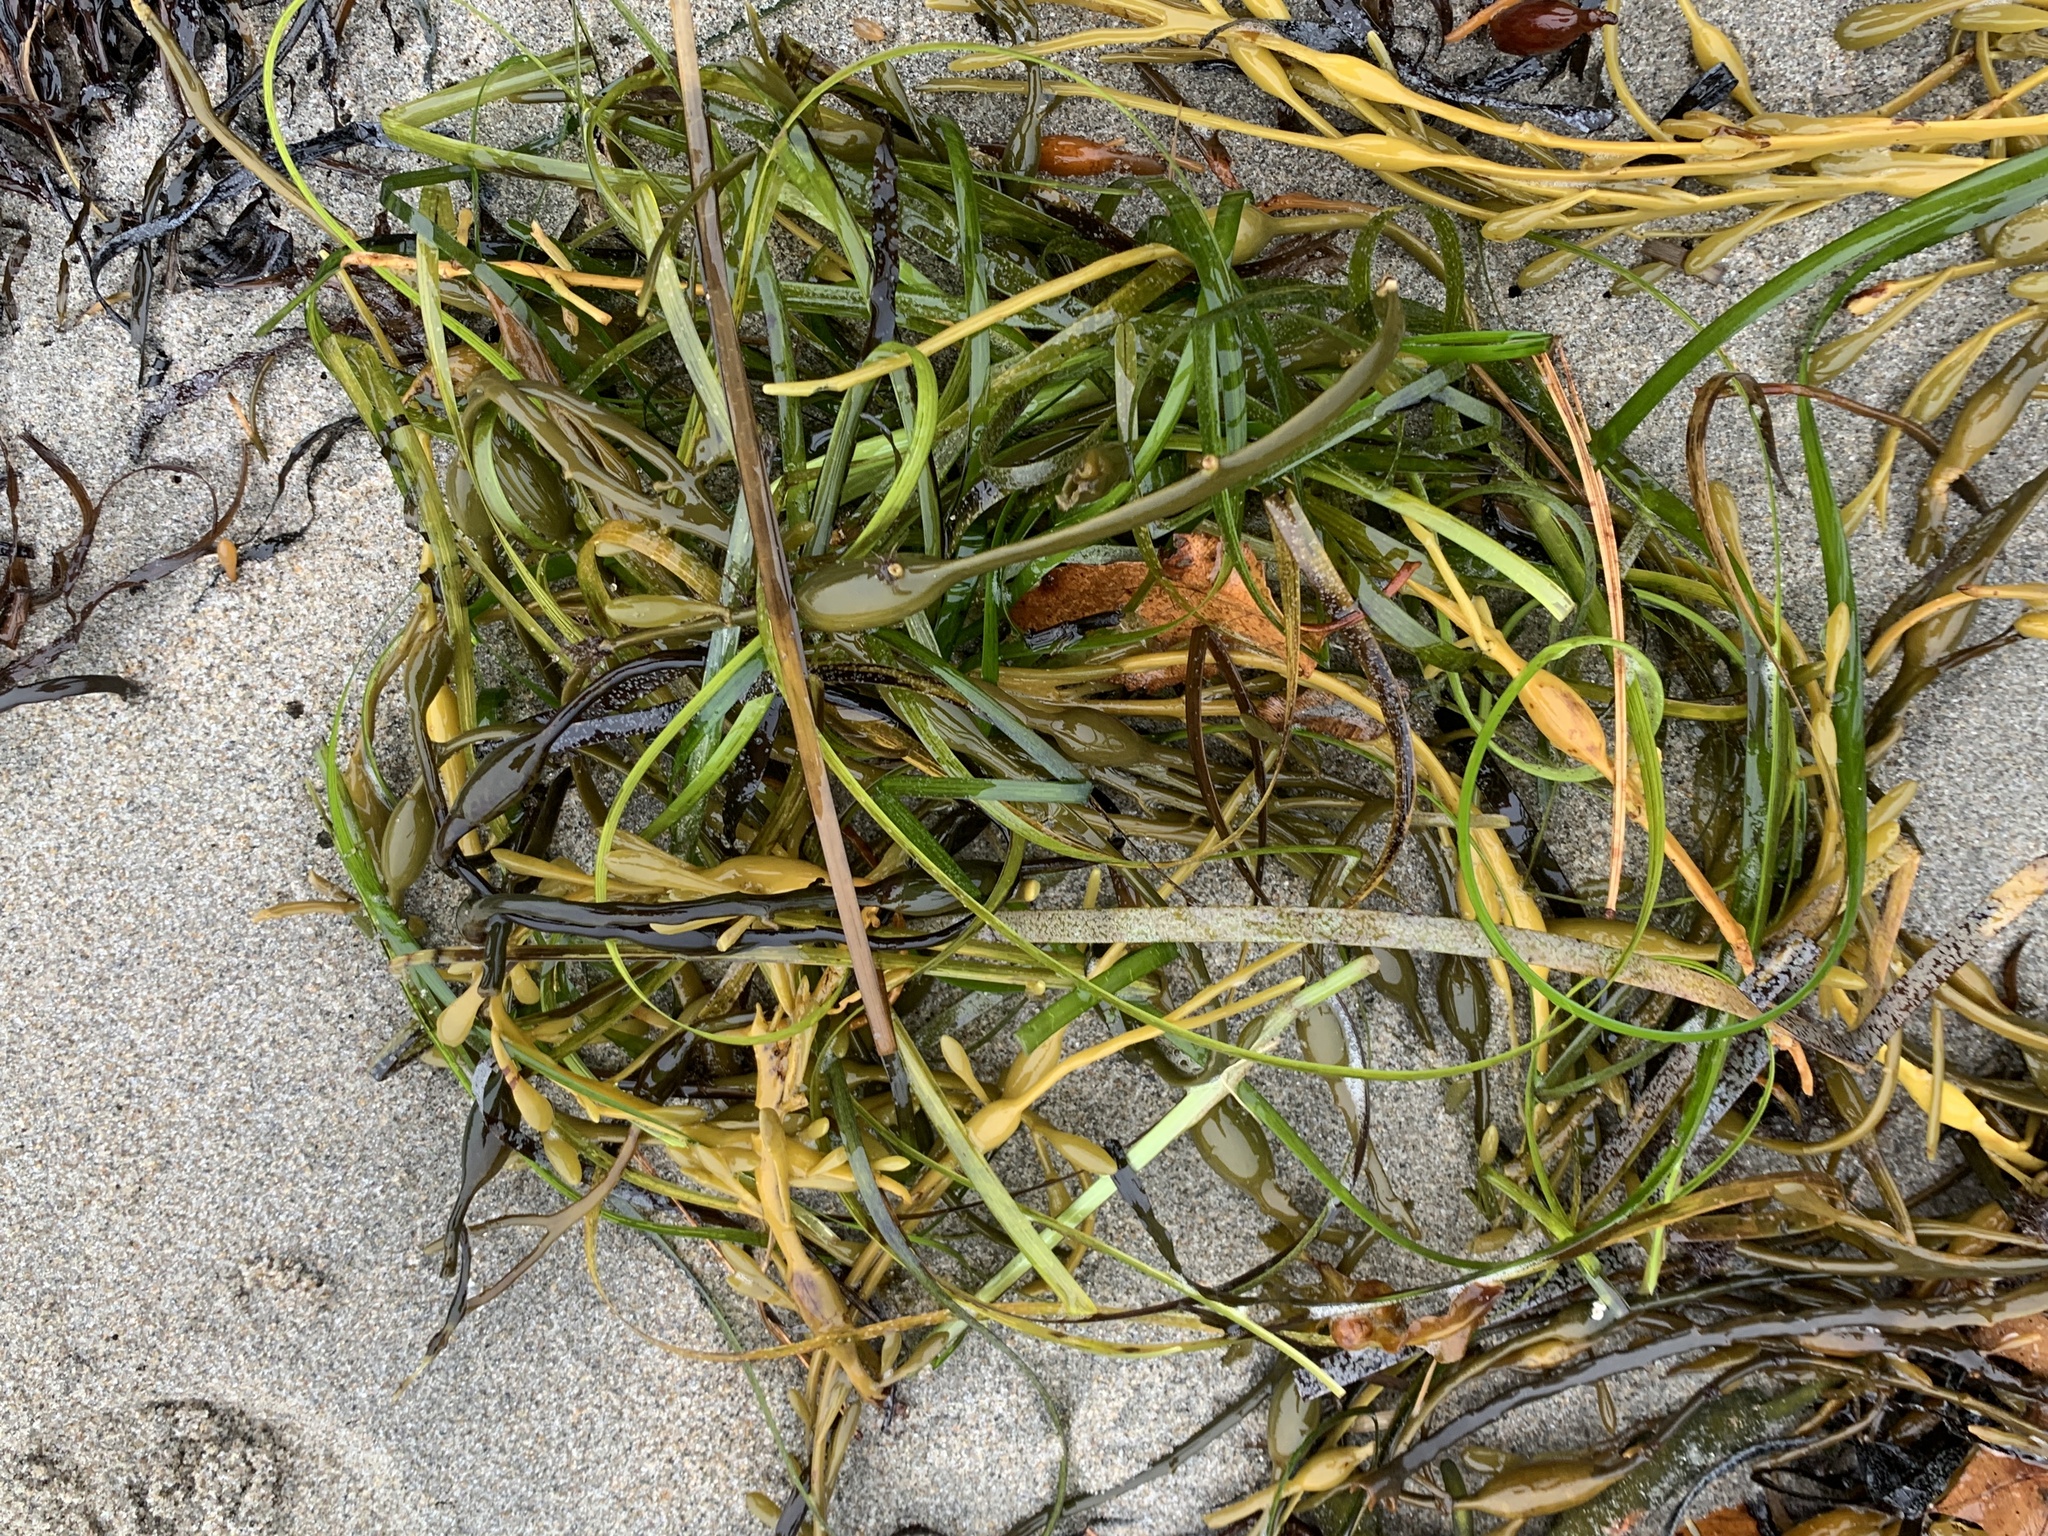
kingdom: Plantae
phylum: Tracheophyta
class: Liliopsida
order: Alismatales
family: Zosteraceae
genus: Zostera
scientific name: Zostera marina
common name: Eelgrass
